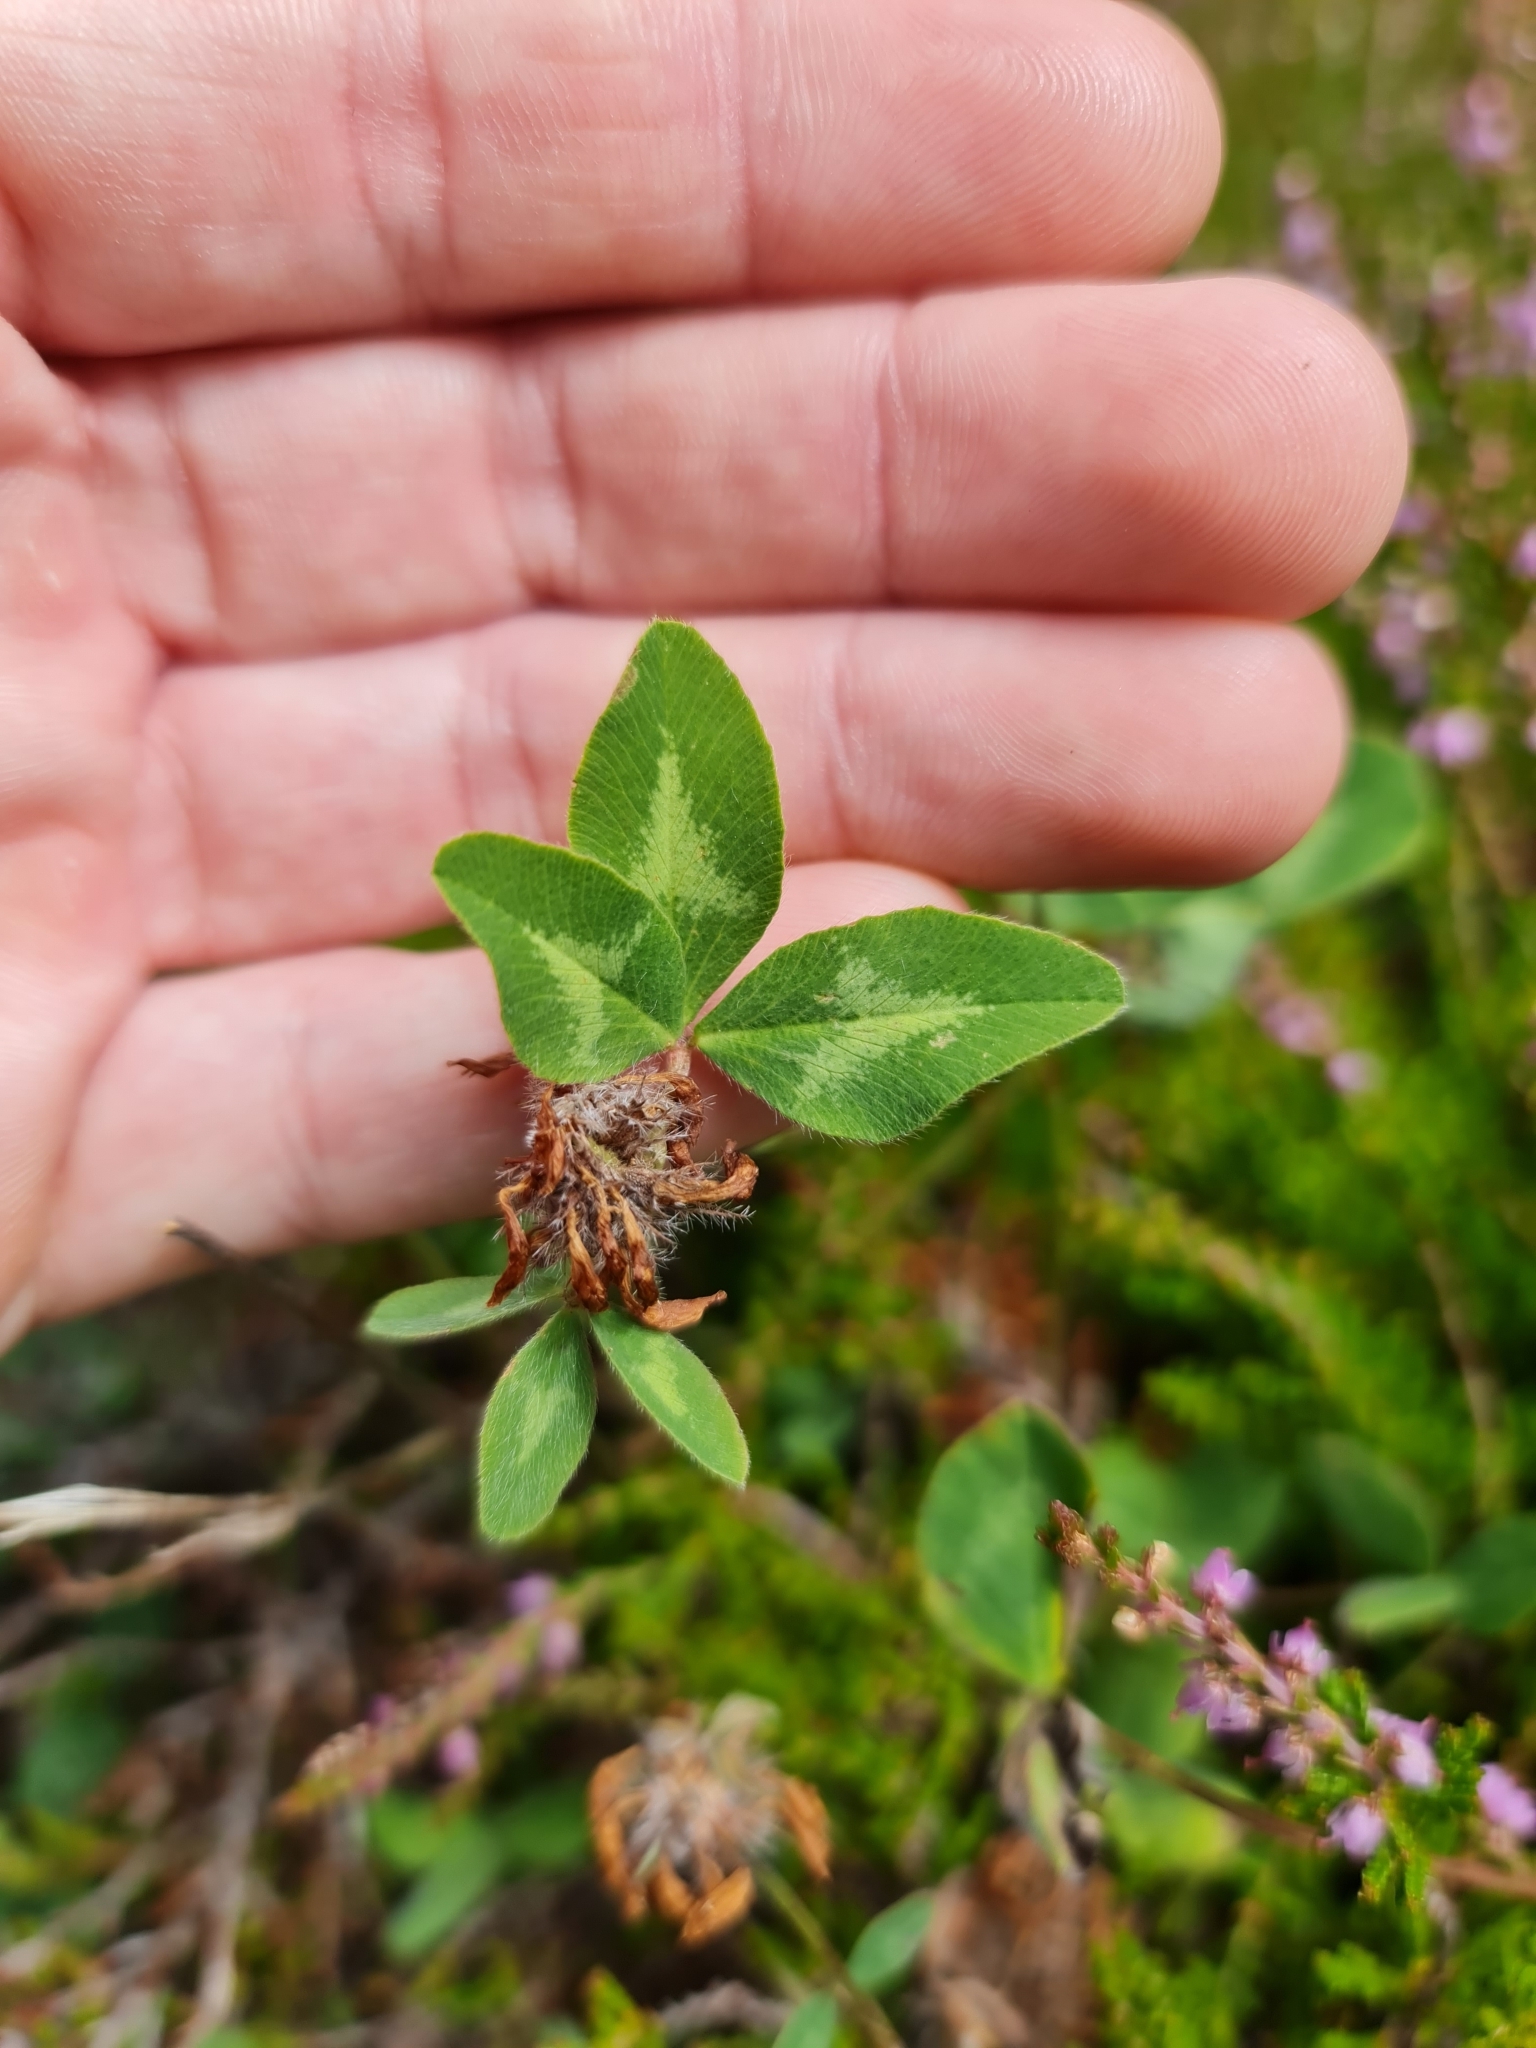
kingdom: Plantae
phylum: Tracheophyta
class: Magnoliopsida
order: Fabales
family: Fabaceae
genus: Trifolium
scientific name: Trifolium pratense
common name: Red clover
